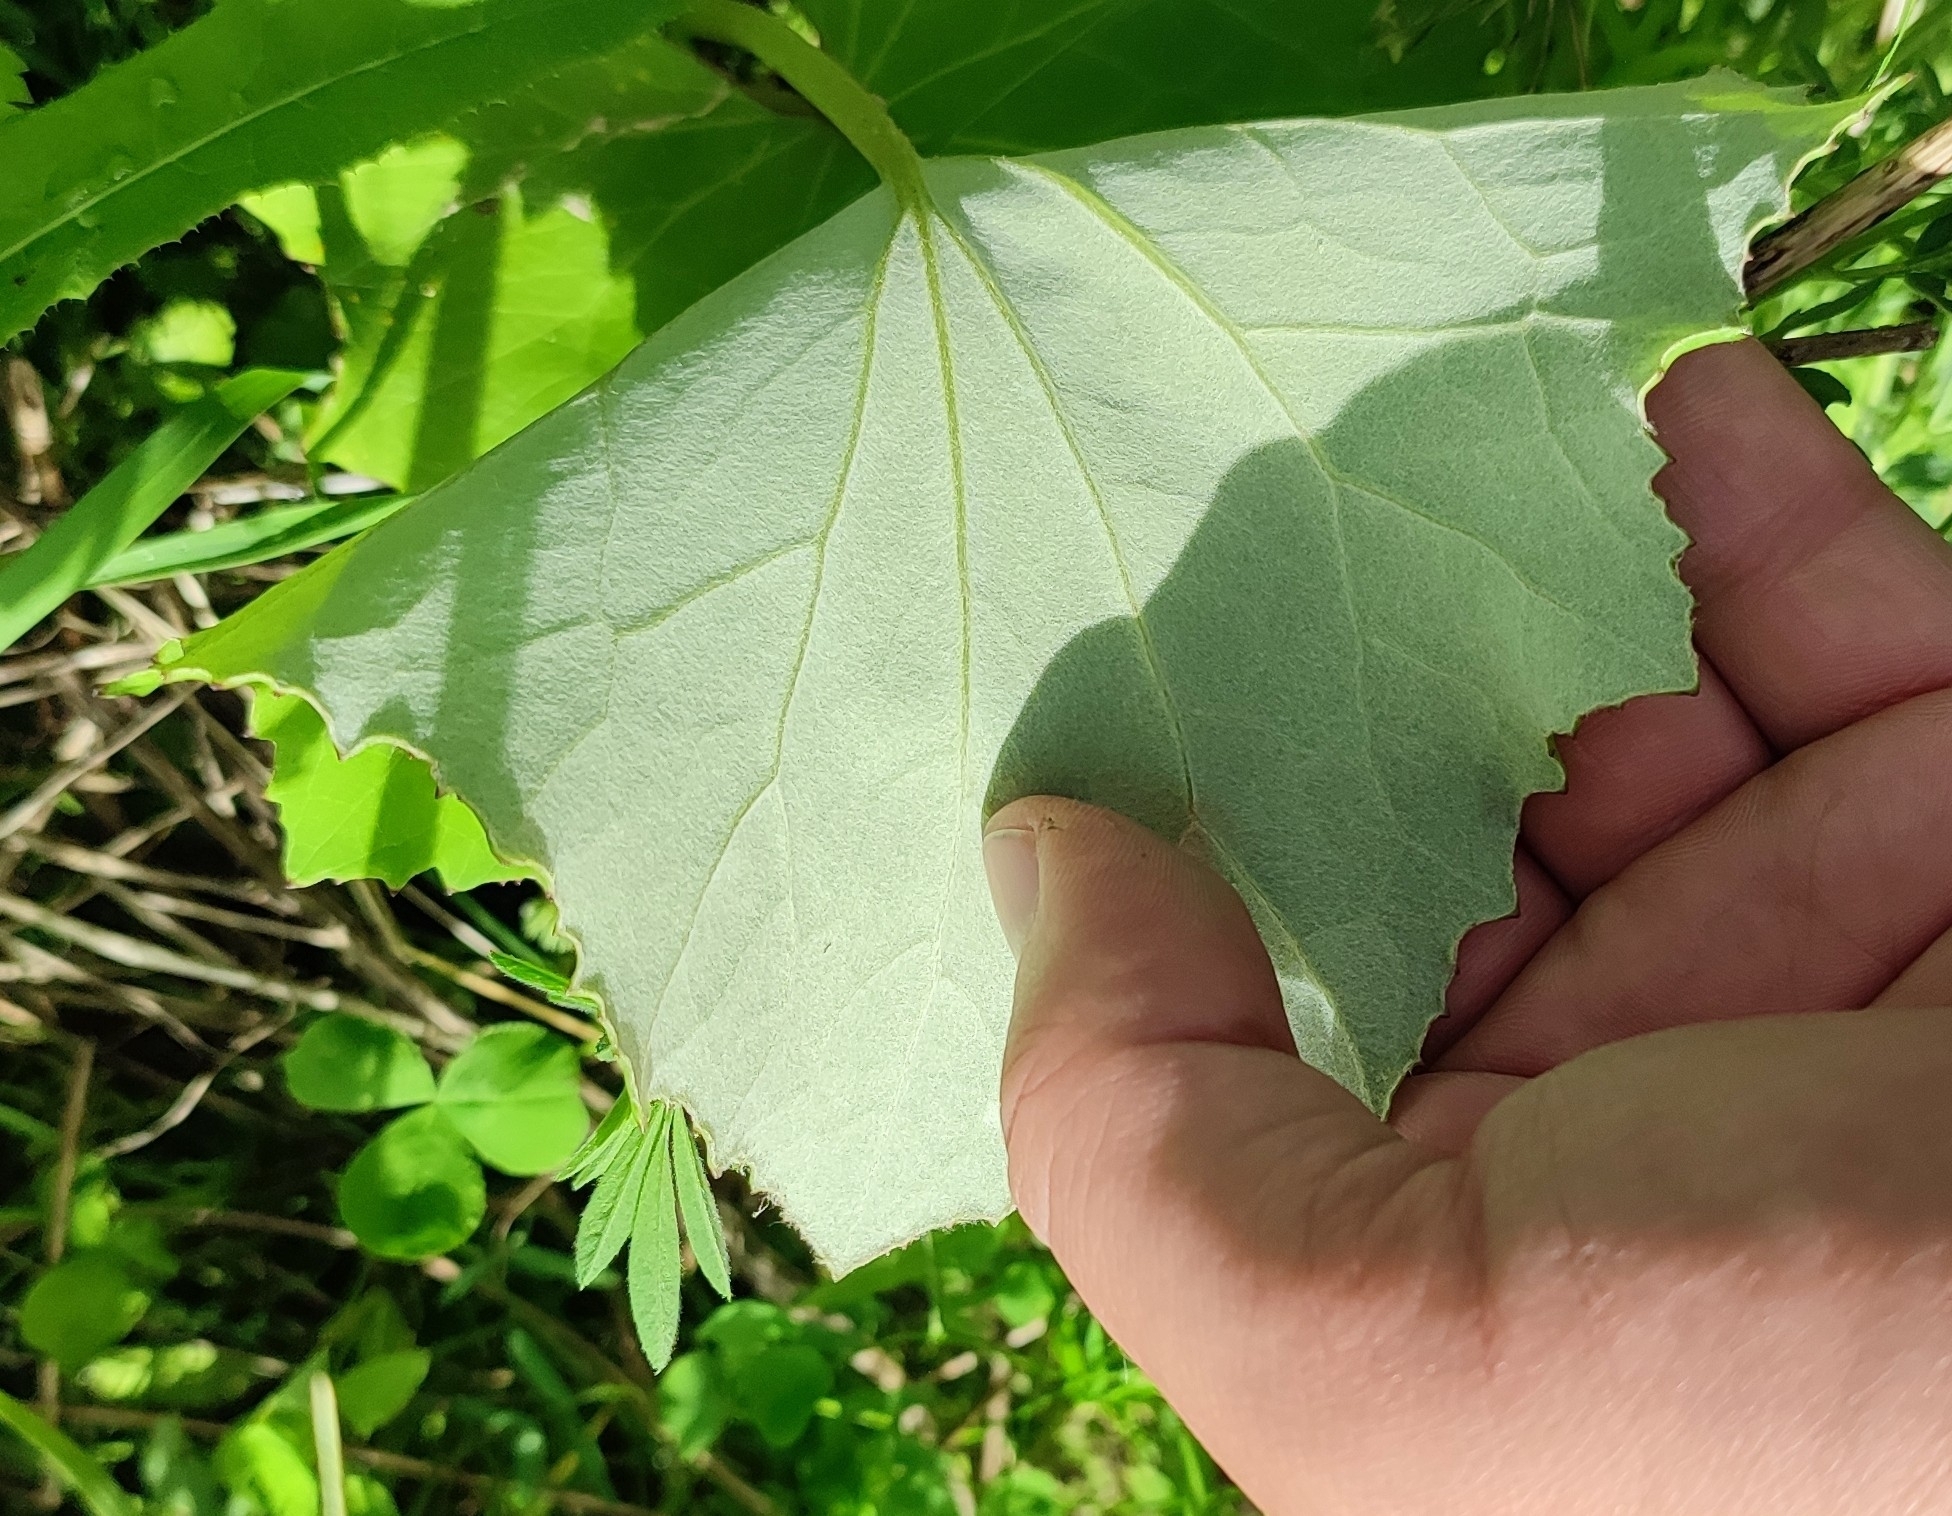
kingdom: Plantae
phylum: Tracheophyta
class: Magnoliopsida
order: Asterales
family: Asteraceae
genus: Tussilago
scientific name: Tussilago farfara
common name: Coltsfoot
